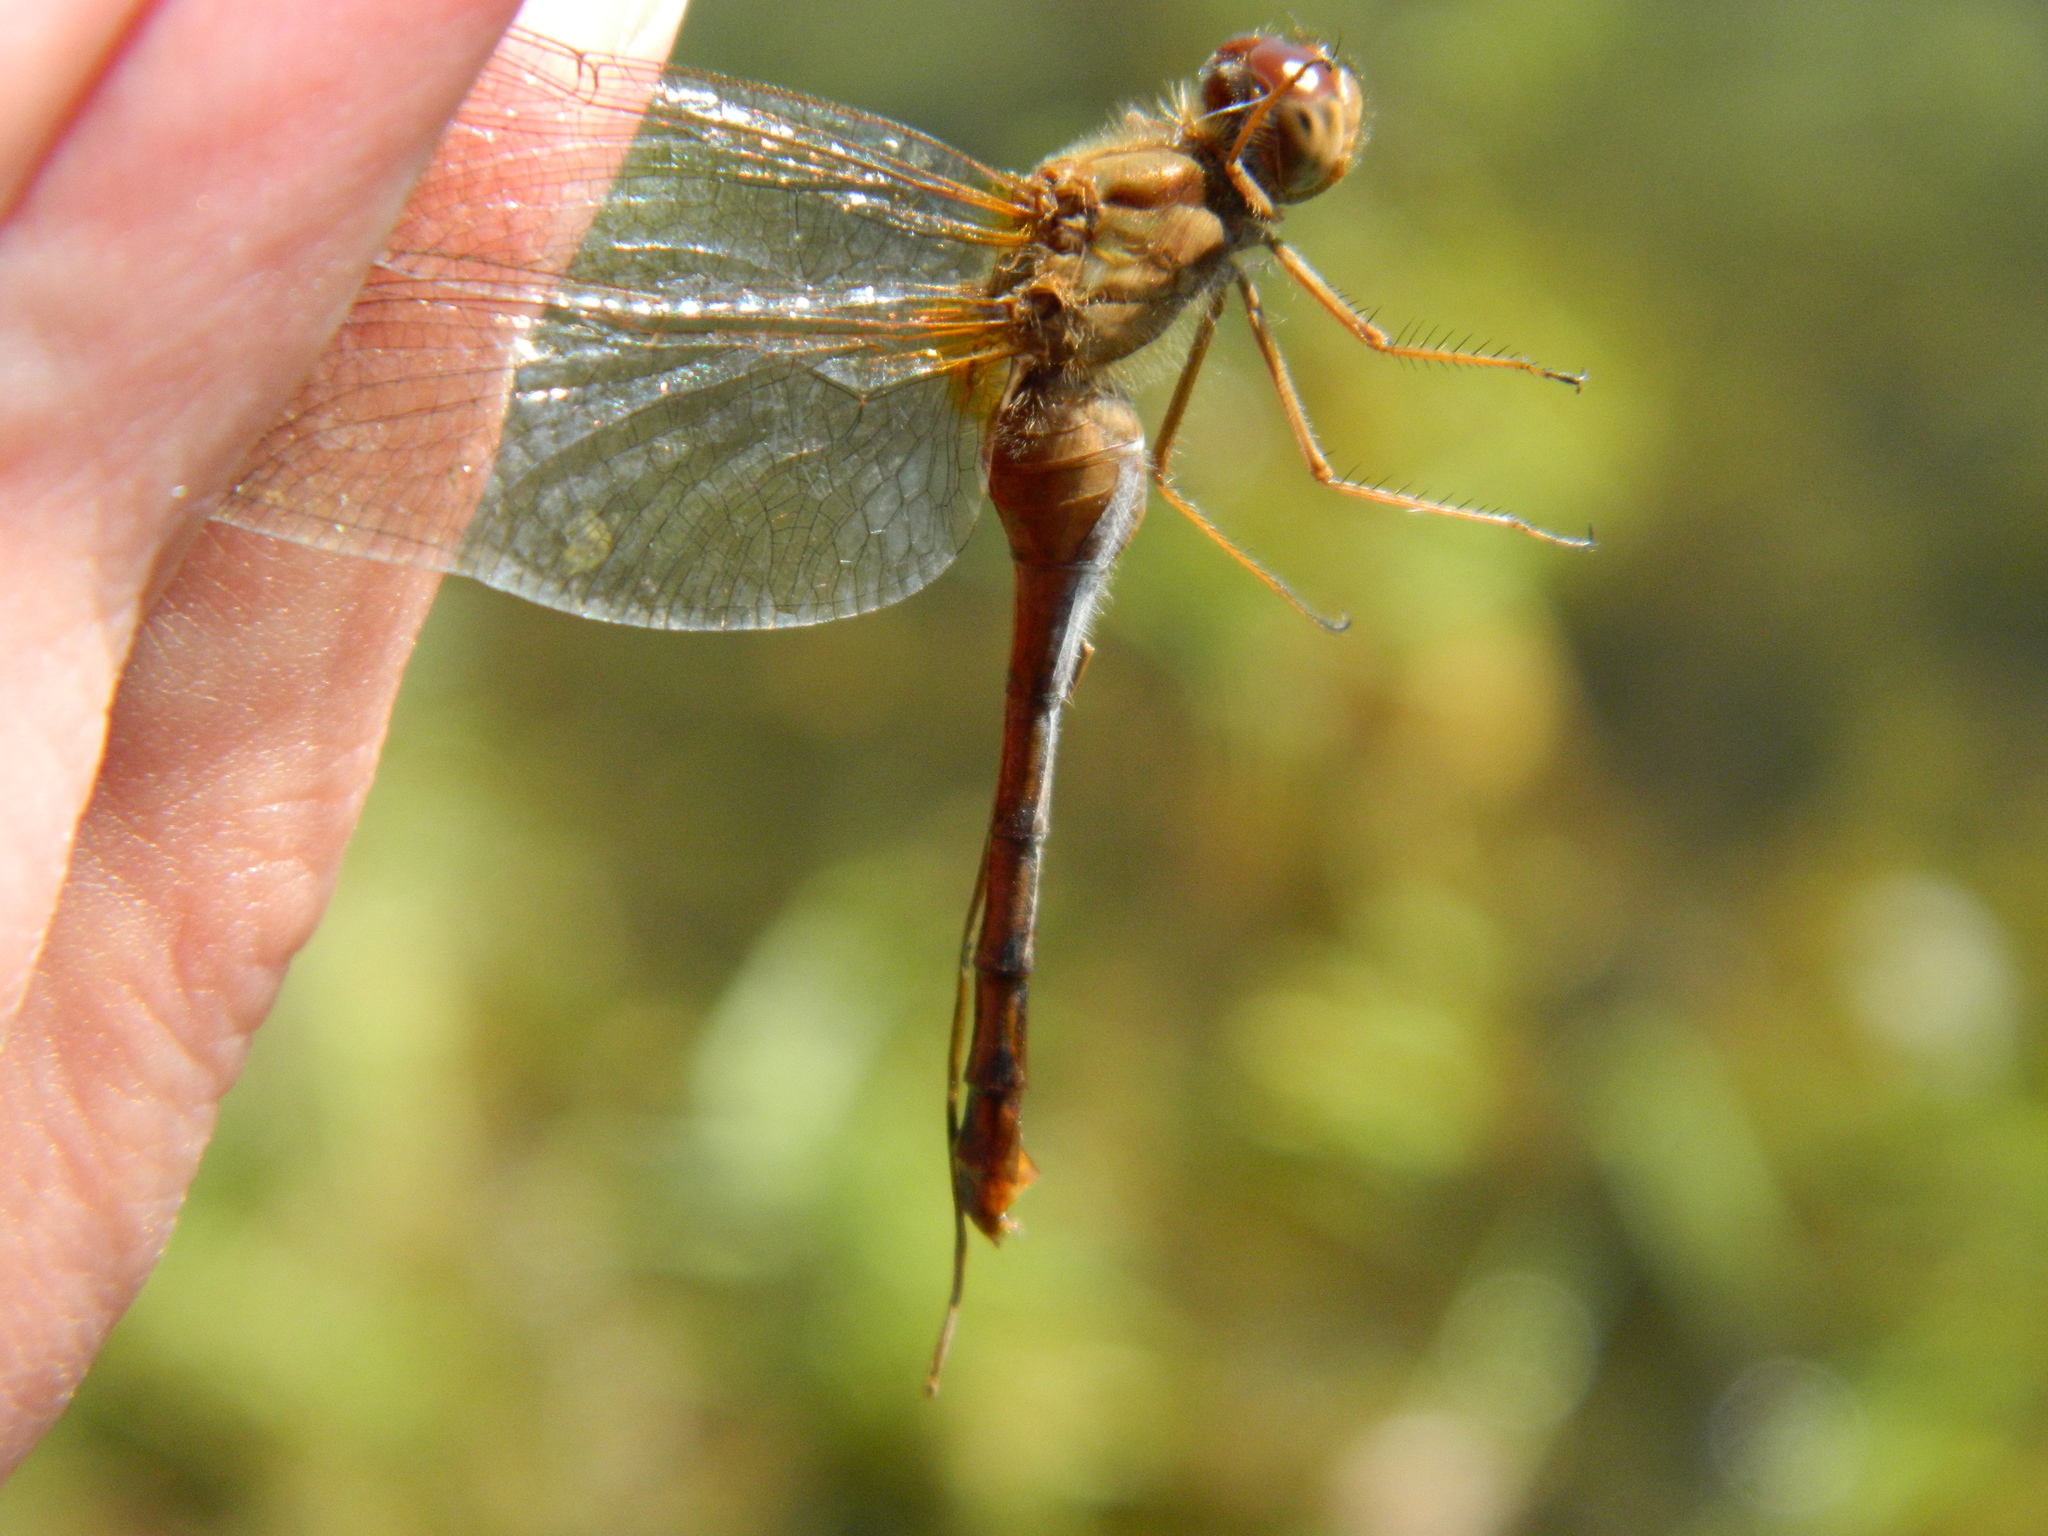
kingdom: Animalia
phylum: Arthropoda
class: Insecta
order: Odonata
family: Libellulidae
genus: Sympetrum
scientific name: Sympetrum vicinum
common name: Autumn meadowhawk
